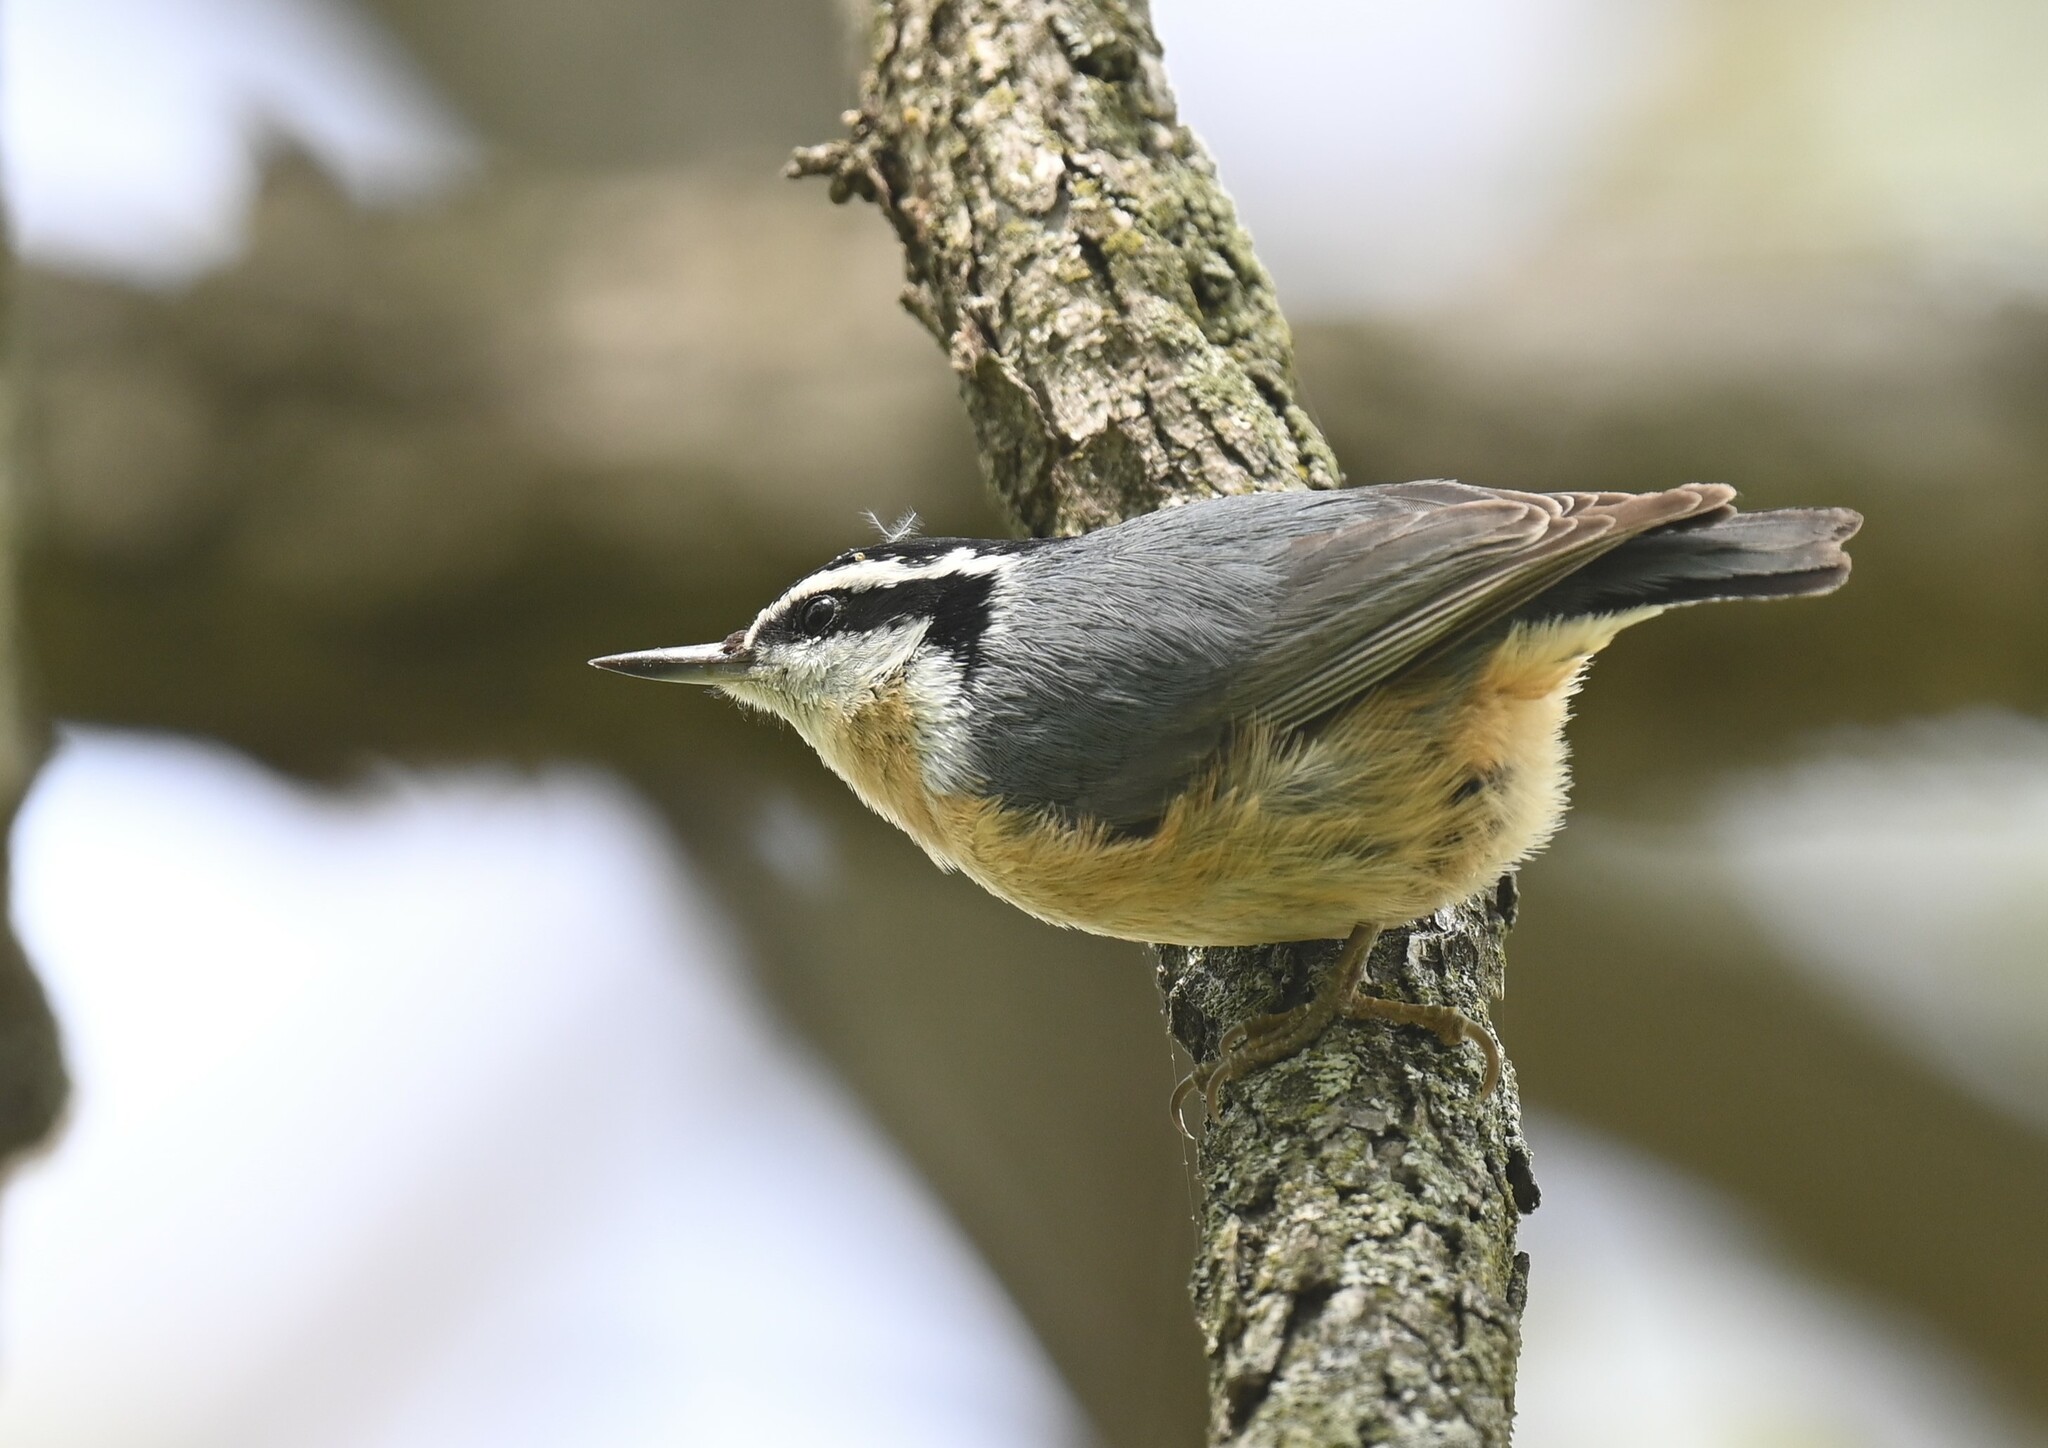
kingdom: Animalia
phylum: Chordata
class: Aves
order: Passeriformes
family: Sittidae
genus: Sitta
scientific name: Sitta canadensis
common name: Red-breasted nuthatch
